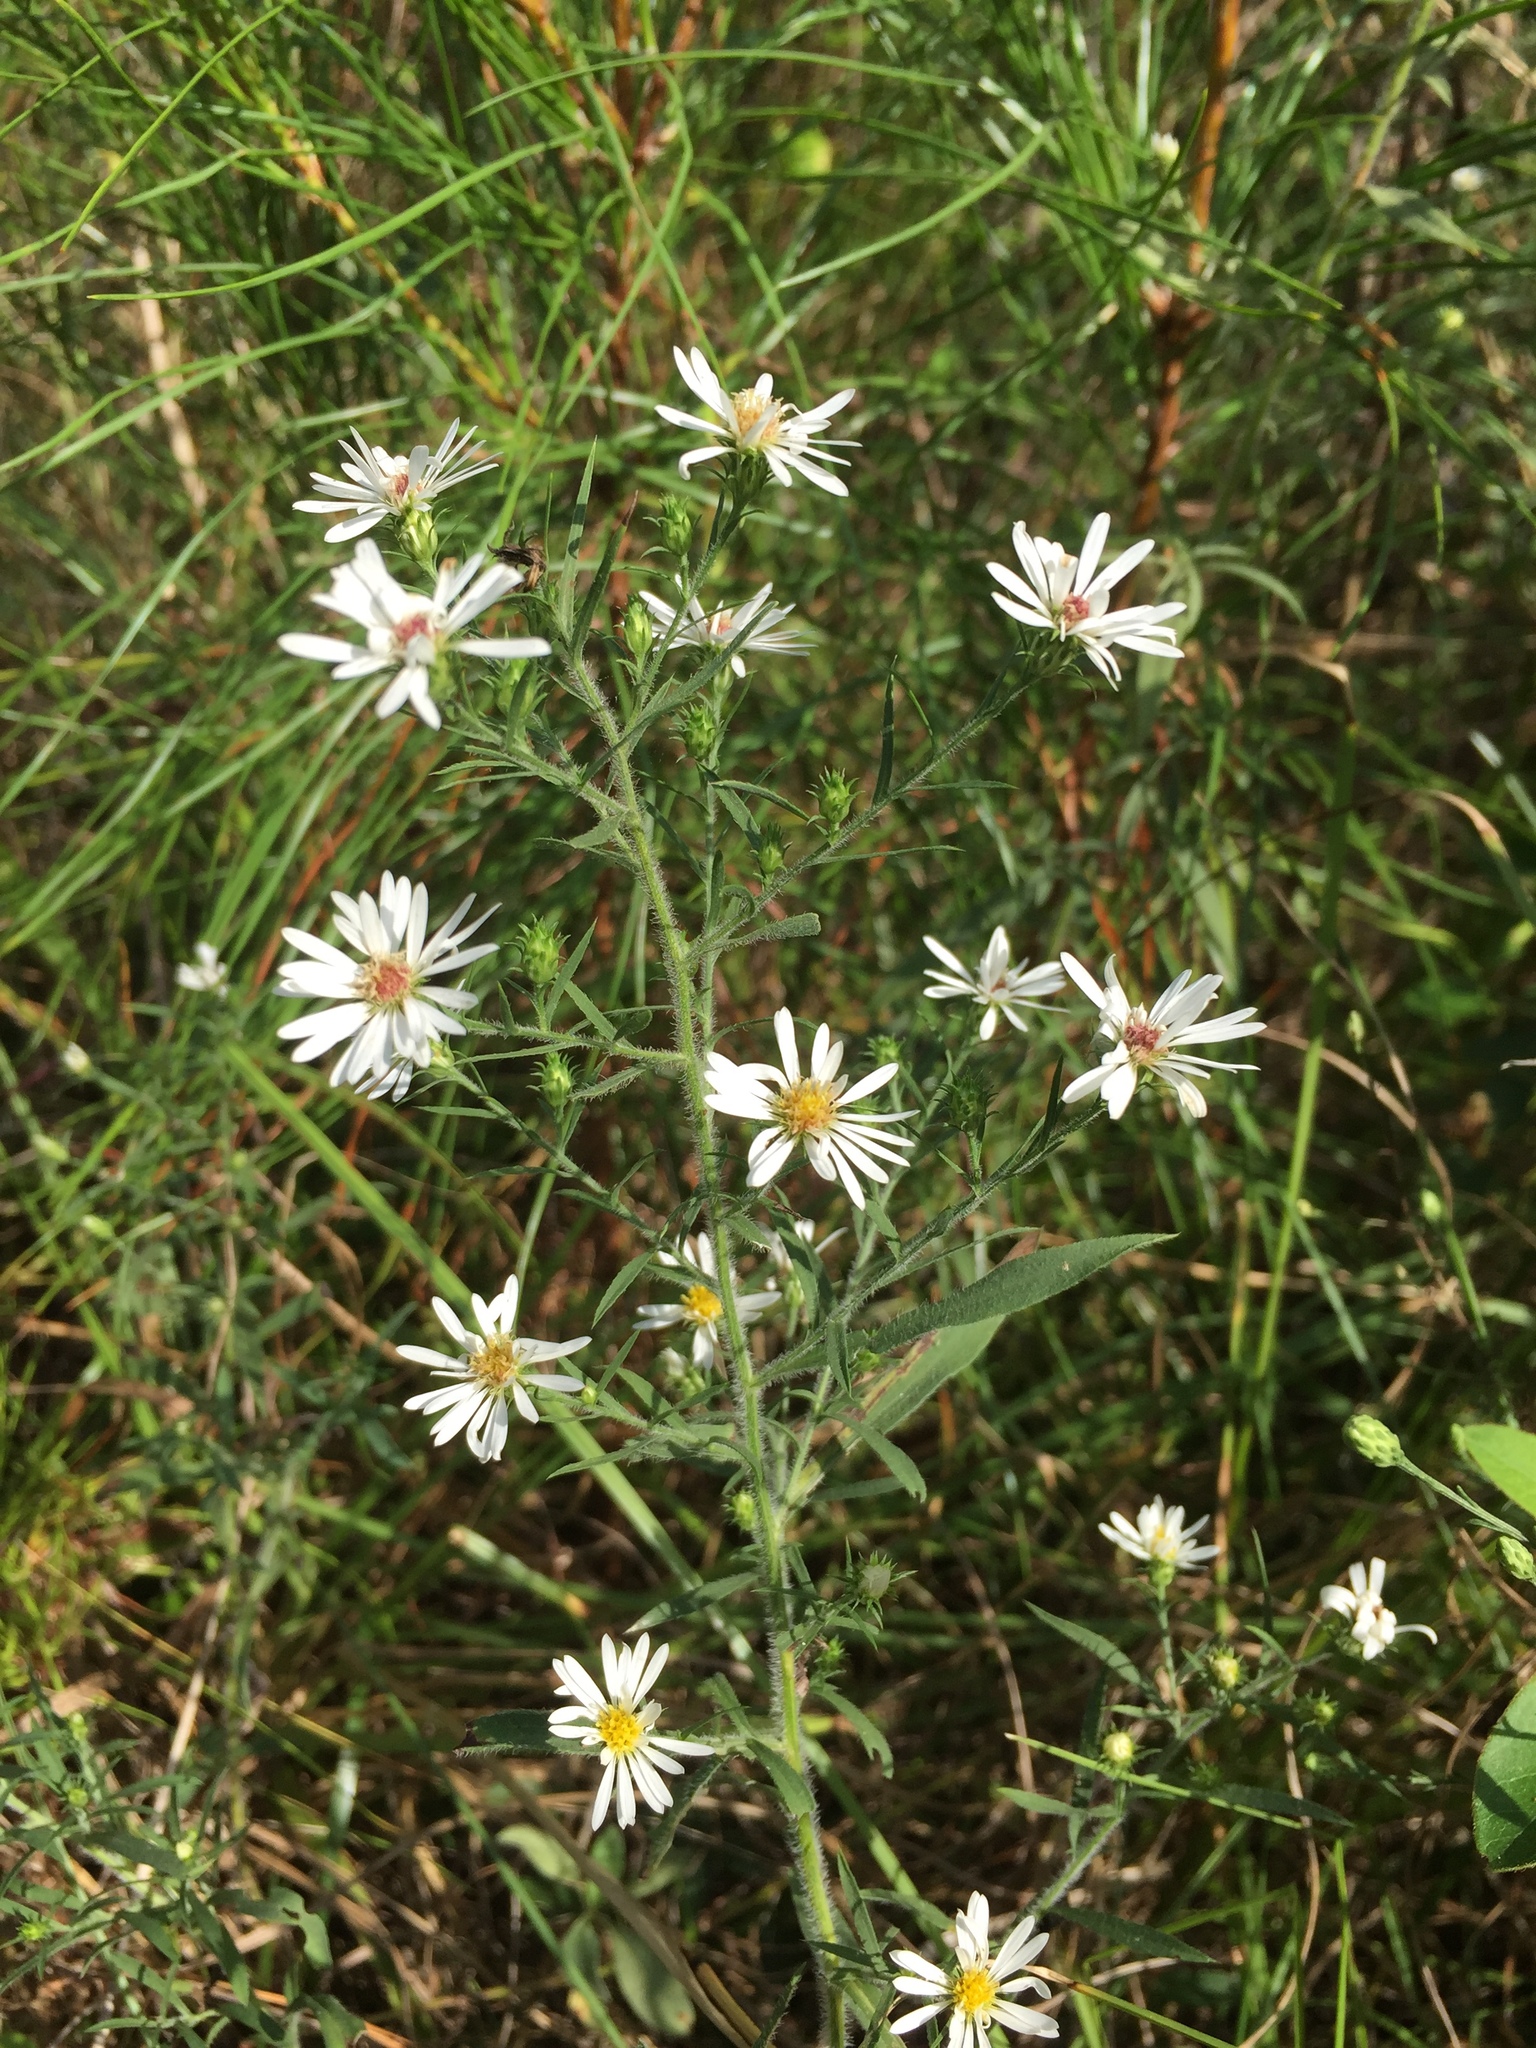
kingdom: Plantae
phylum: Tracheophyta
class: Magnoliopsida
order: Asterales
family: Asteraceae
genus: Symphyotrichum
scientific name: Symphyotrichum pilosum
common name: Awl aster
